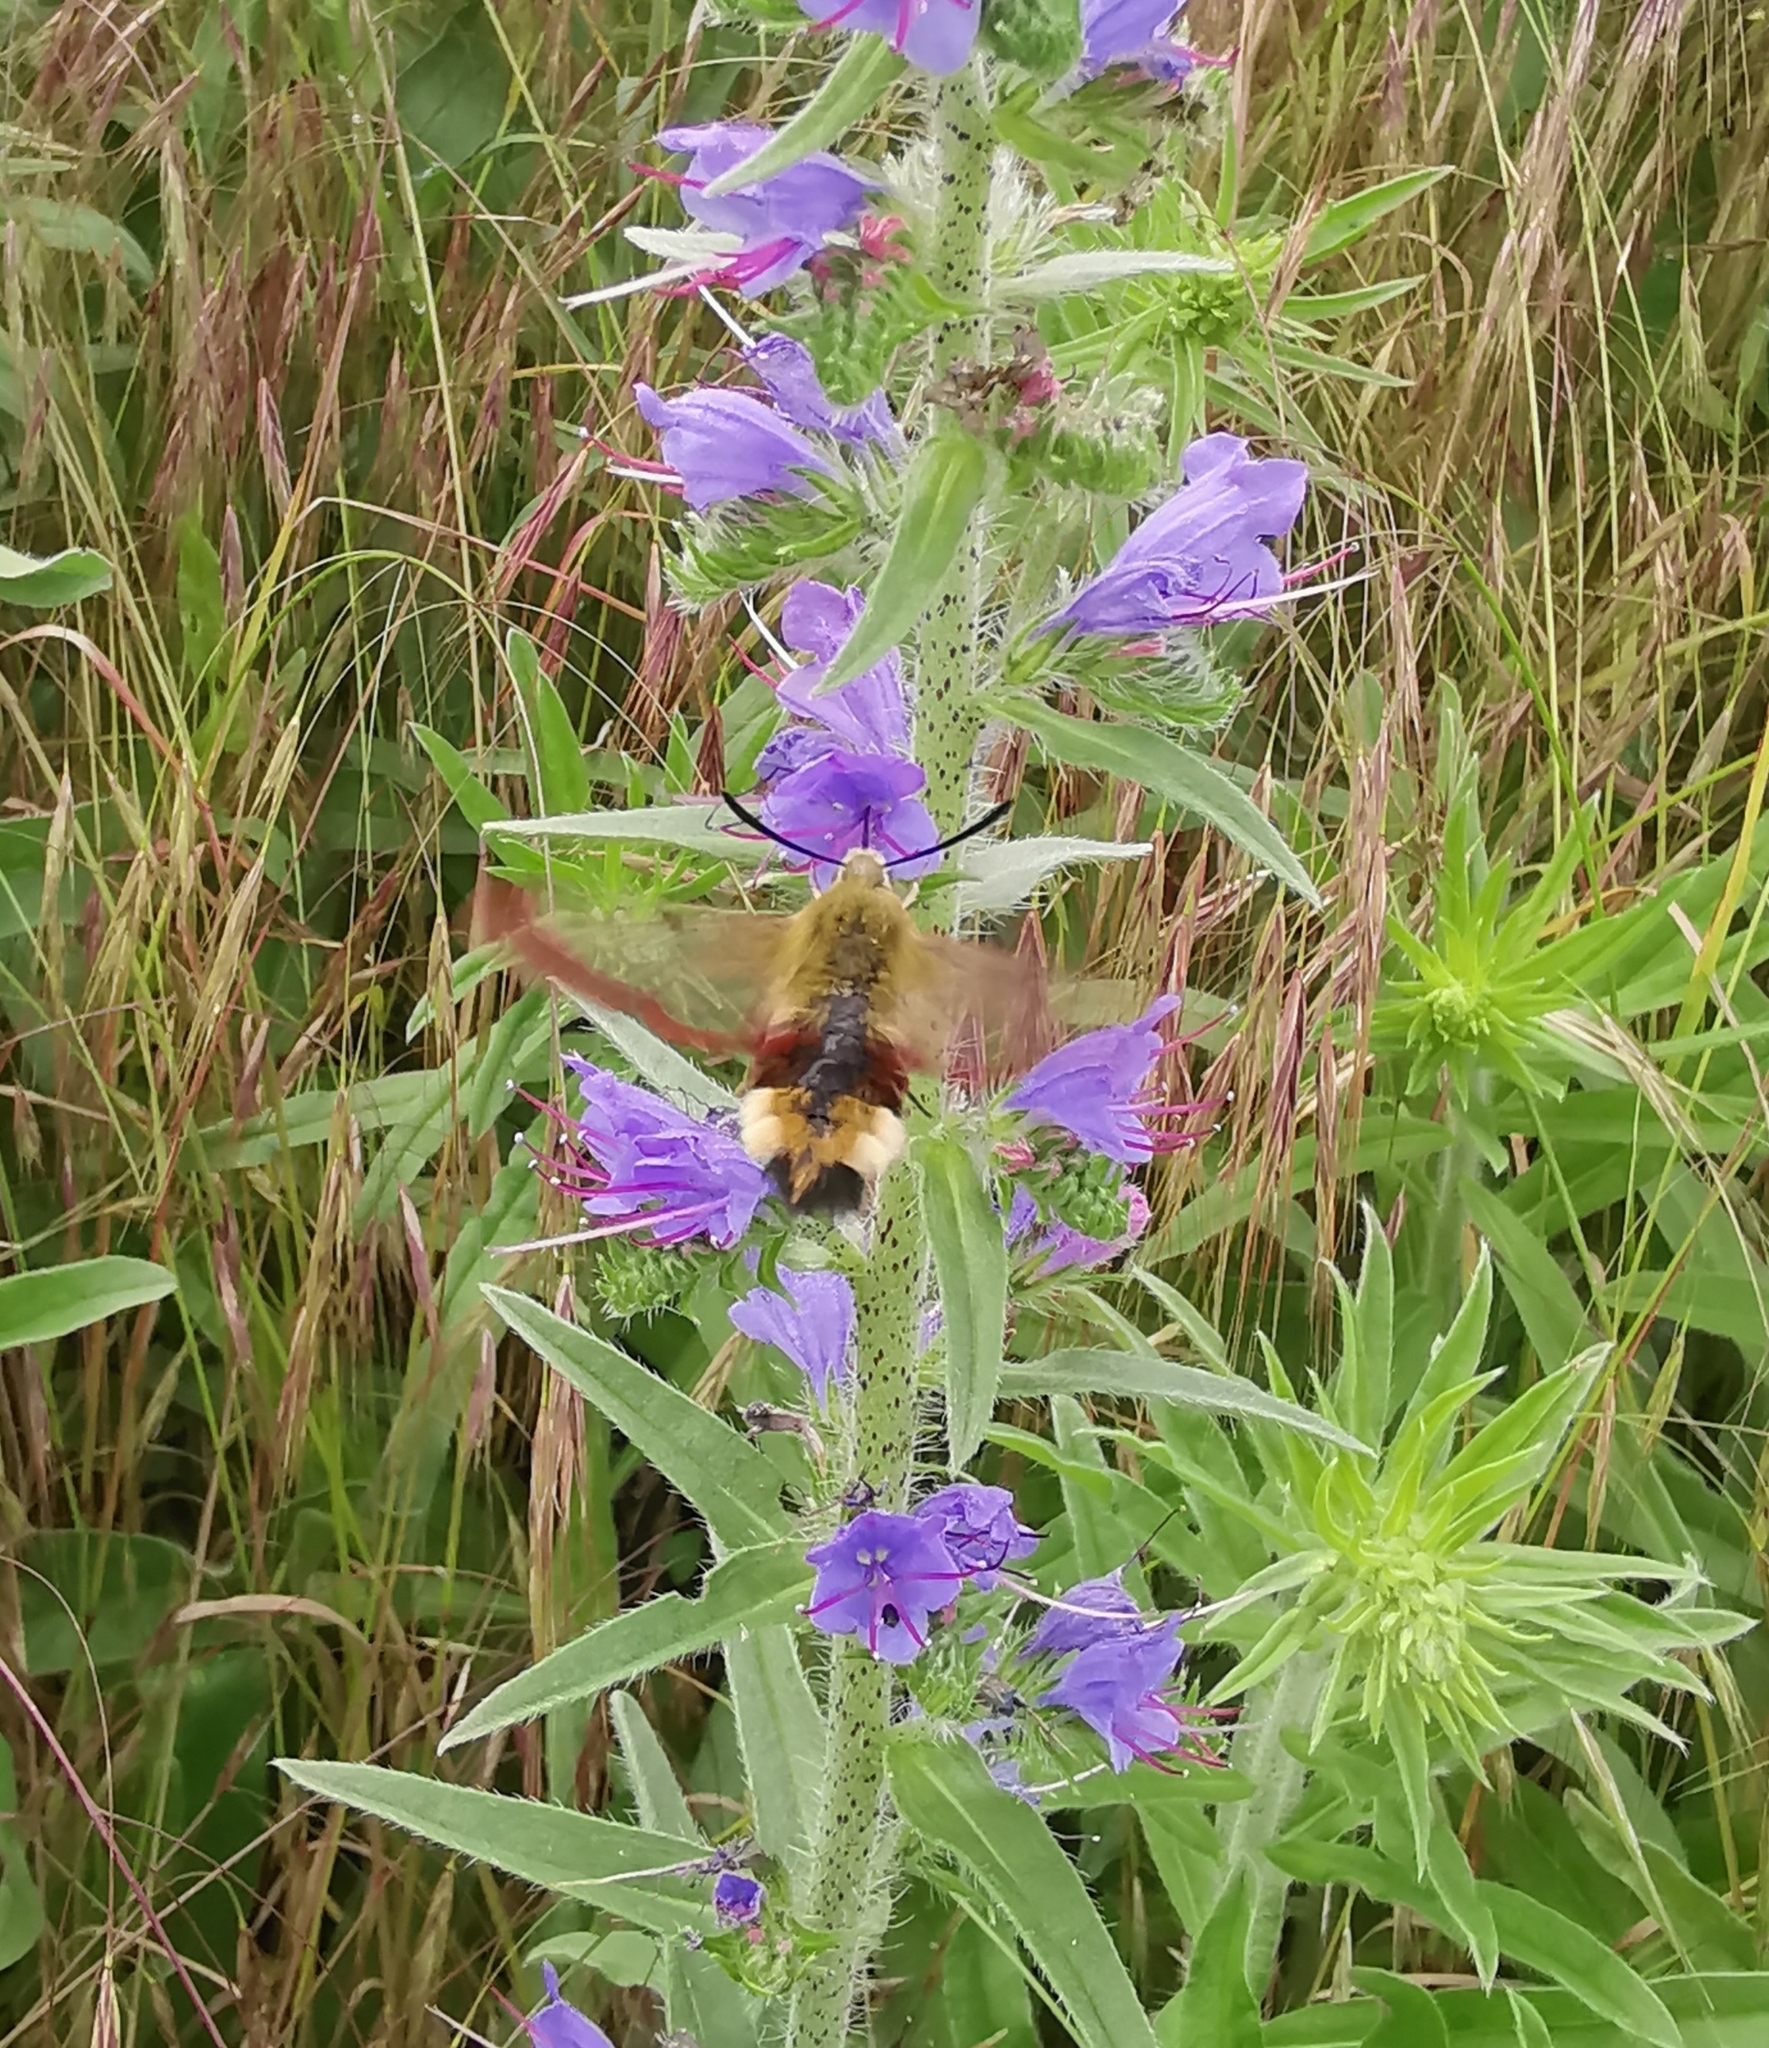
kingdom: Animalia
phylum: Arthropoda
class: Insecta
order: Lepidoptera
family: Sphingidae
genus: Hemaris
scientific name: Hemaris fuciformis
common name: Broad-bordered bee hawk-moth
